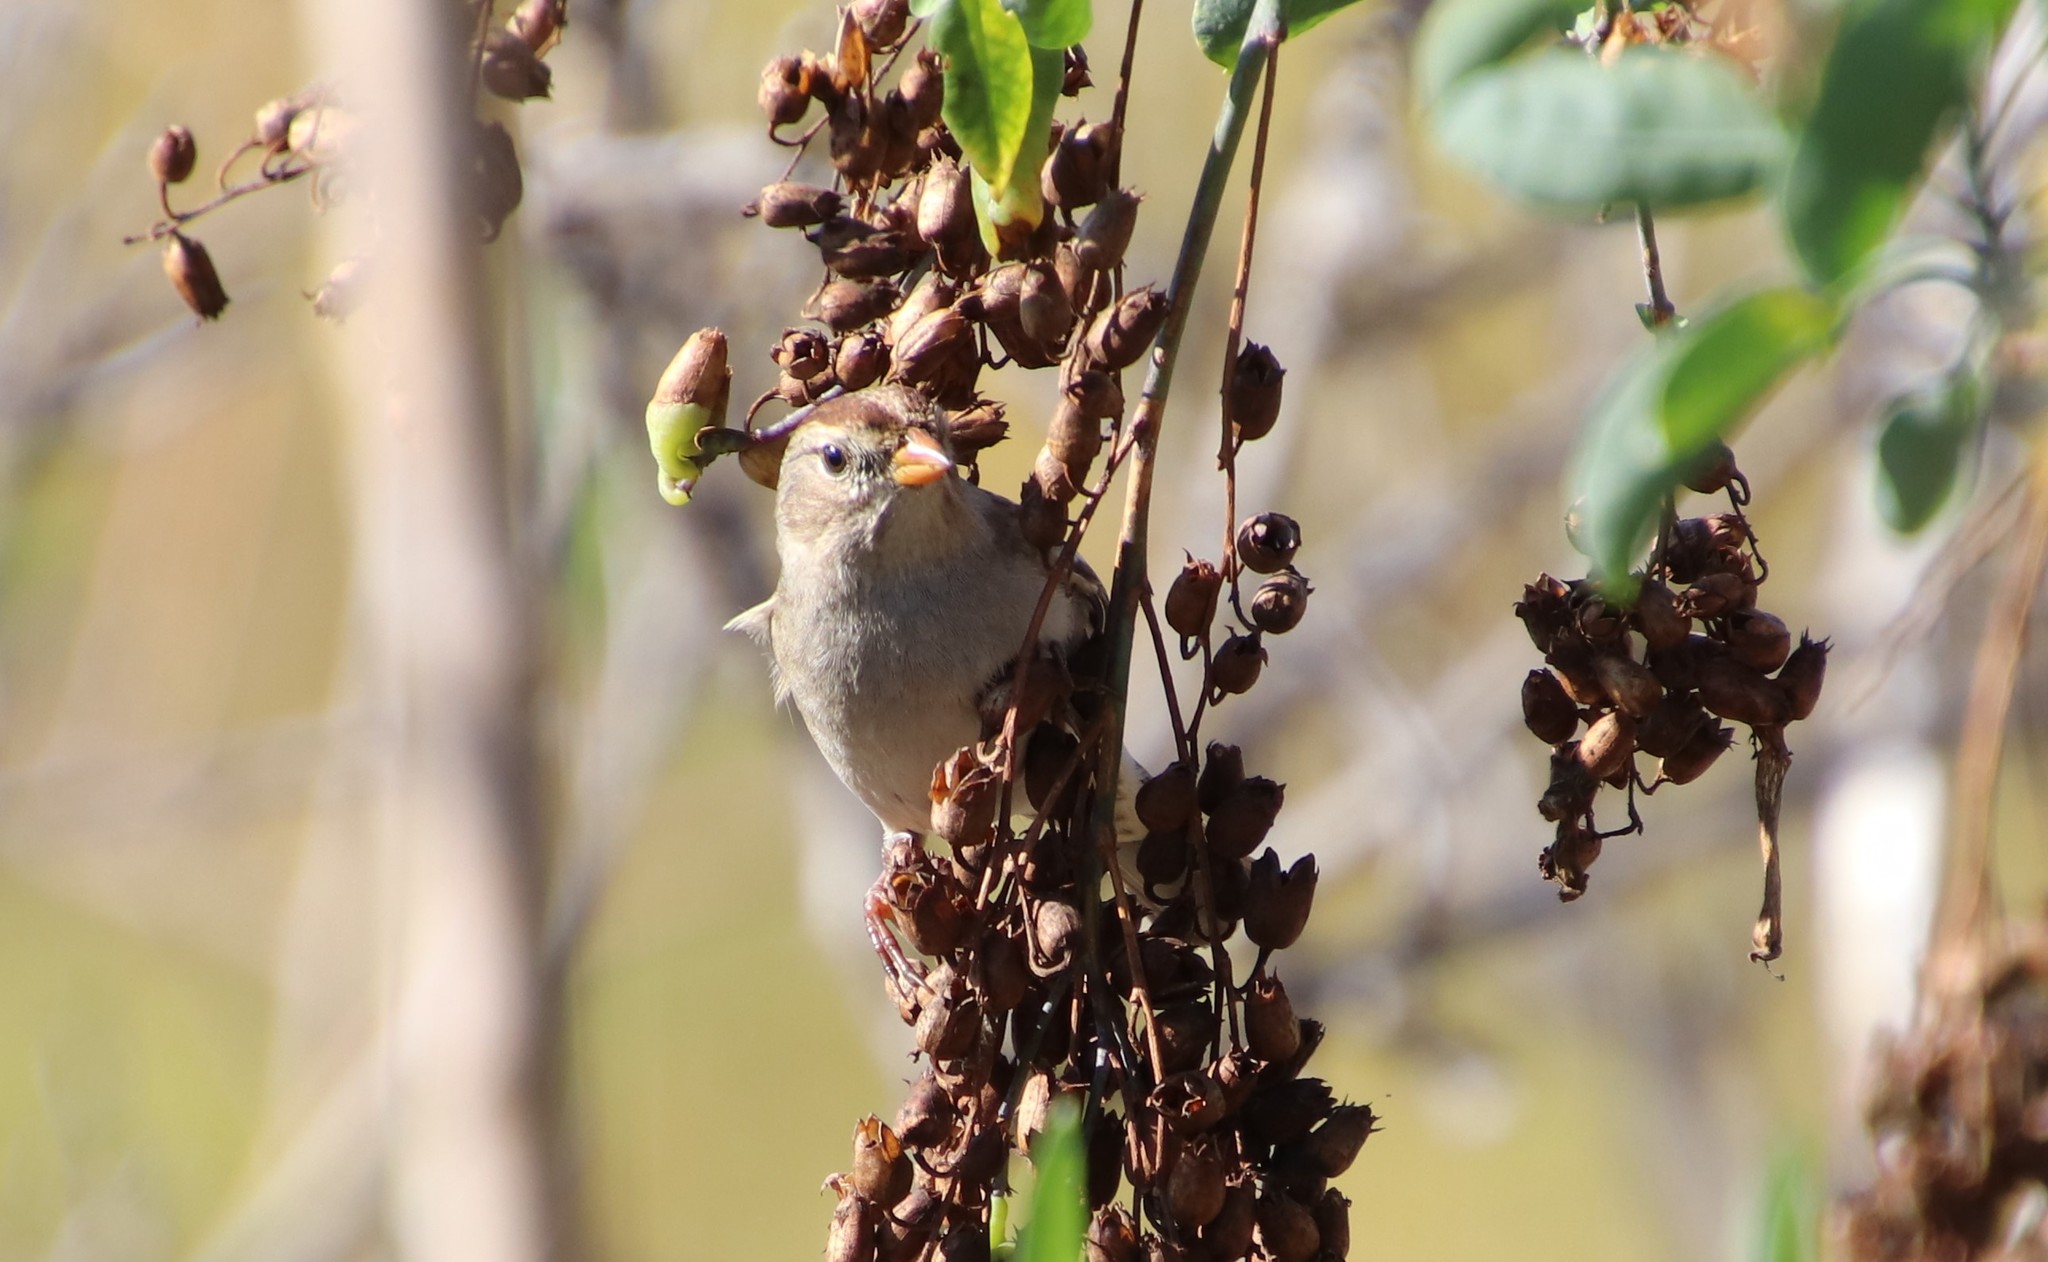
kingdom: Animalia
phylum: Chordata
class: Aves
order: Passeriformes
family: Passerellidae
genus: Zonotrichia
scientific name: Zonotrichia leucophrys
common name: White-crowned sparrow
